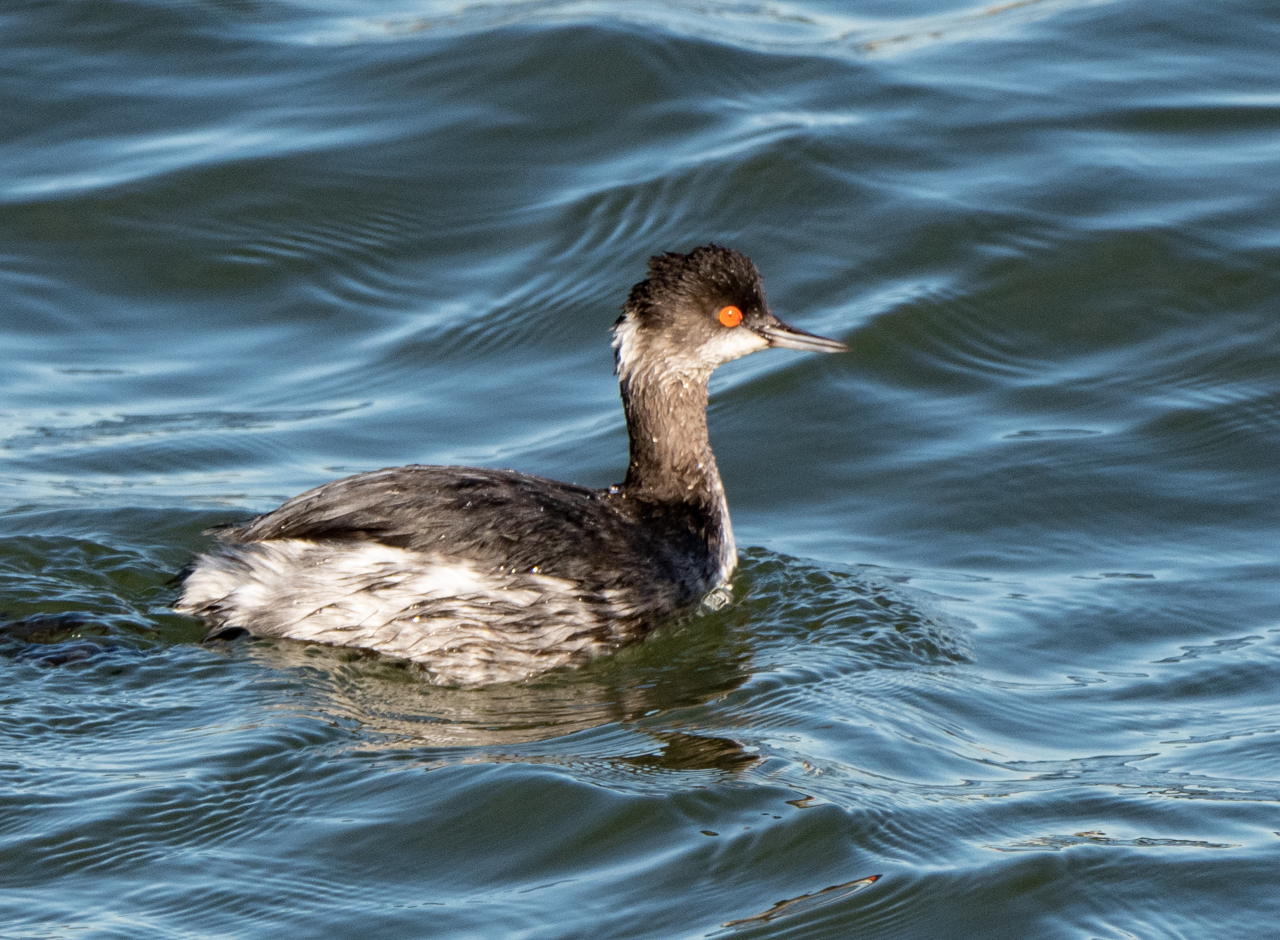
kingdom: Animalia
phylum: Chordata
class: Aves
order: Podicipediformes
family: Podicipedidae
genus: Podiceps
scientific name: Podiceps nigricollis
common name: Black-necked grebe
